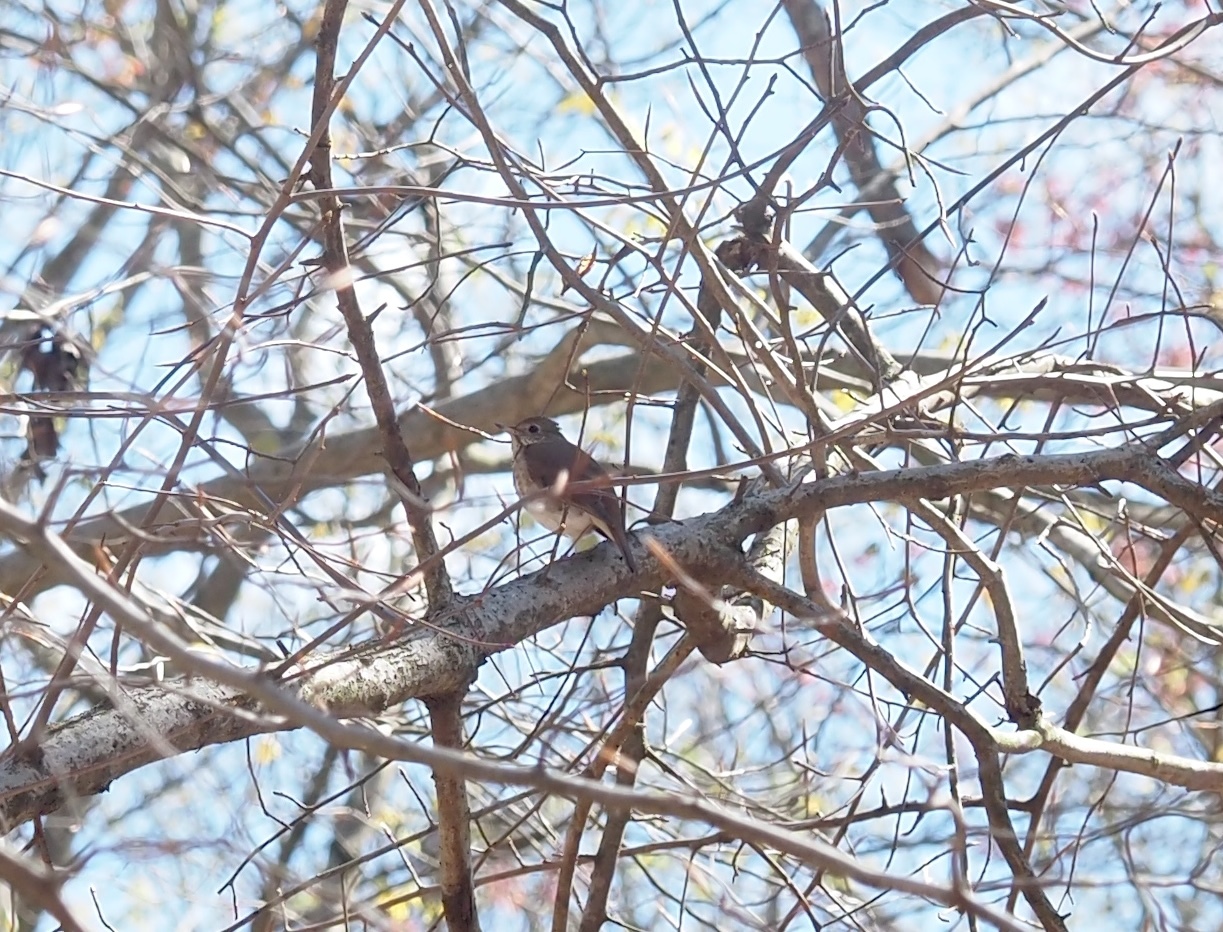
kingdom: Animalia
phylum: Chordata
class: Aves
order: Passeriformes
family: Turdidae
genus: Catharus
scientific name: Catharus guttatus
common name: Hermit thrush
